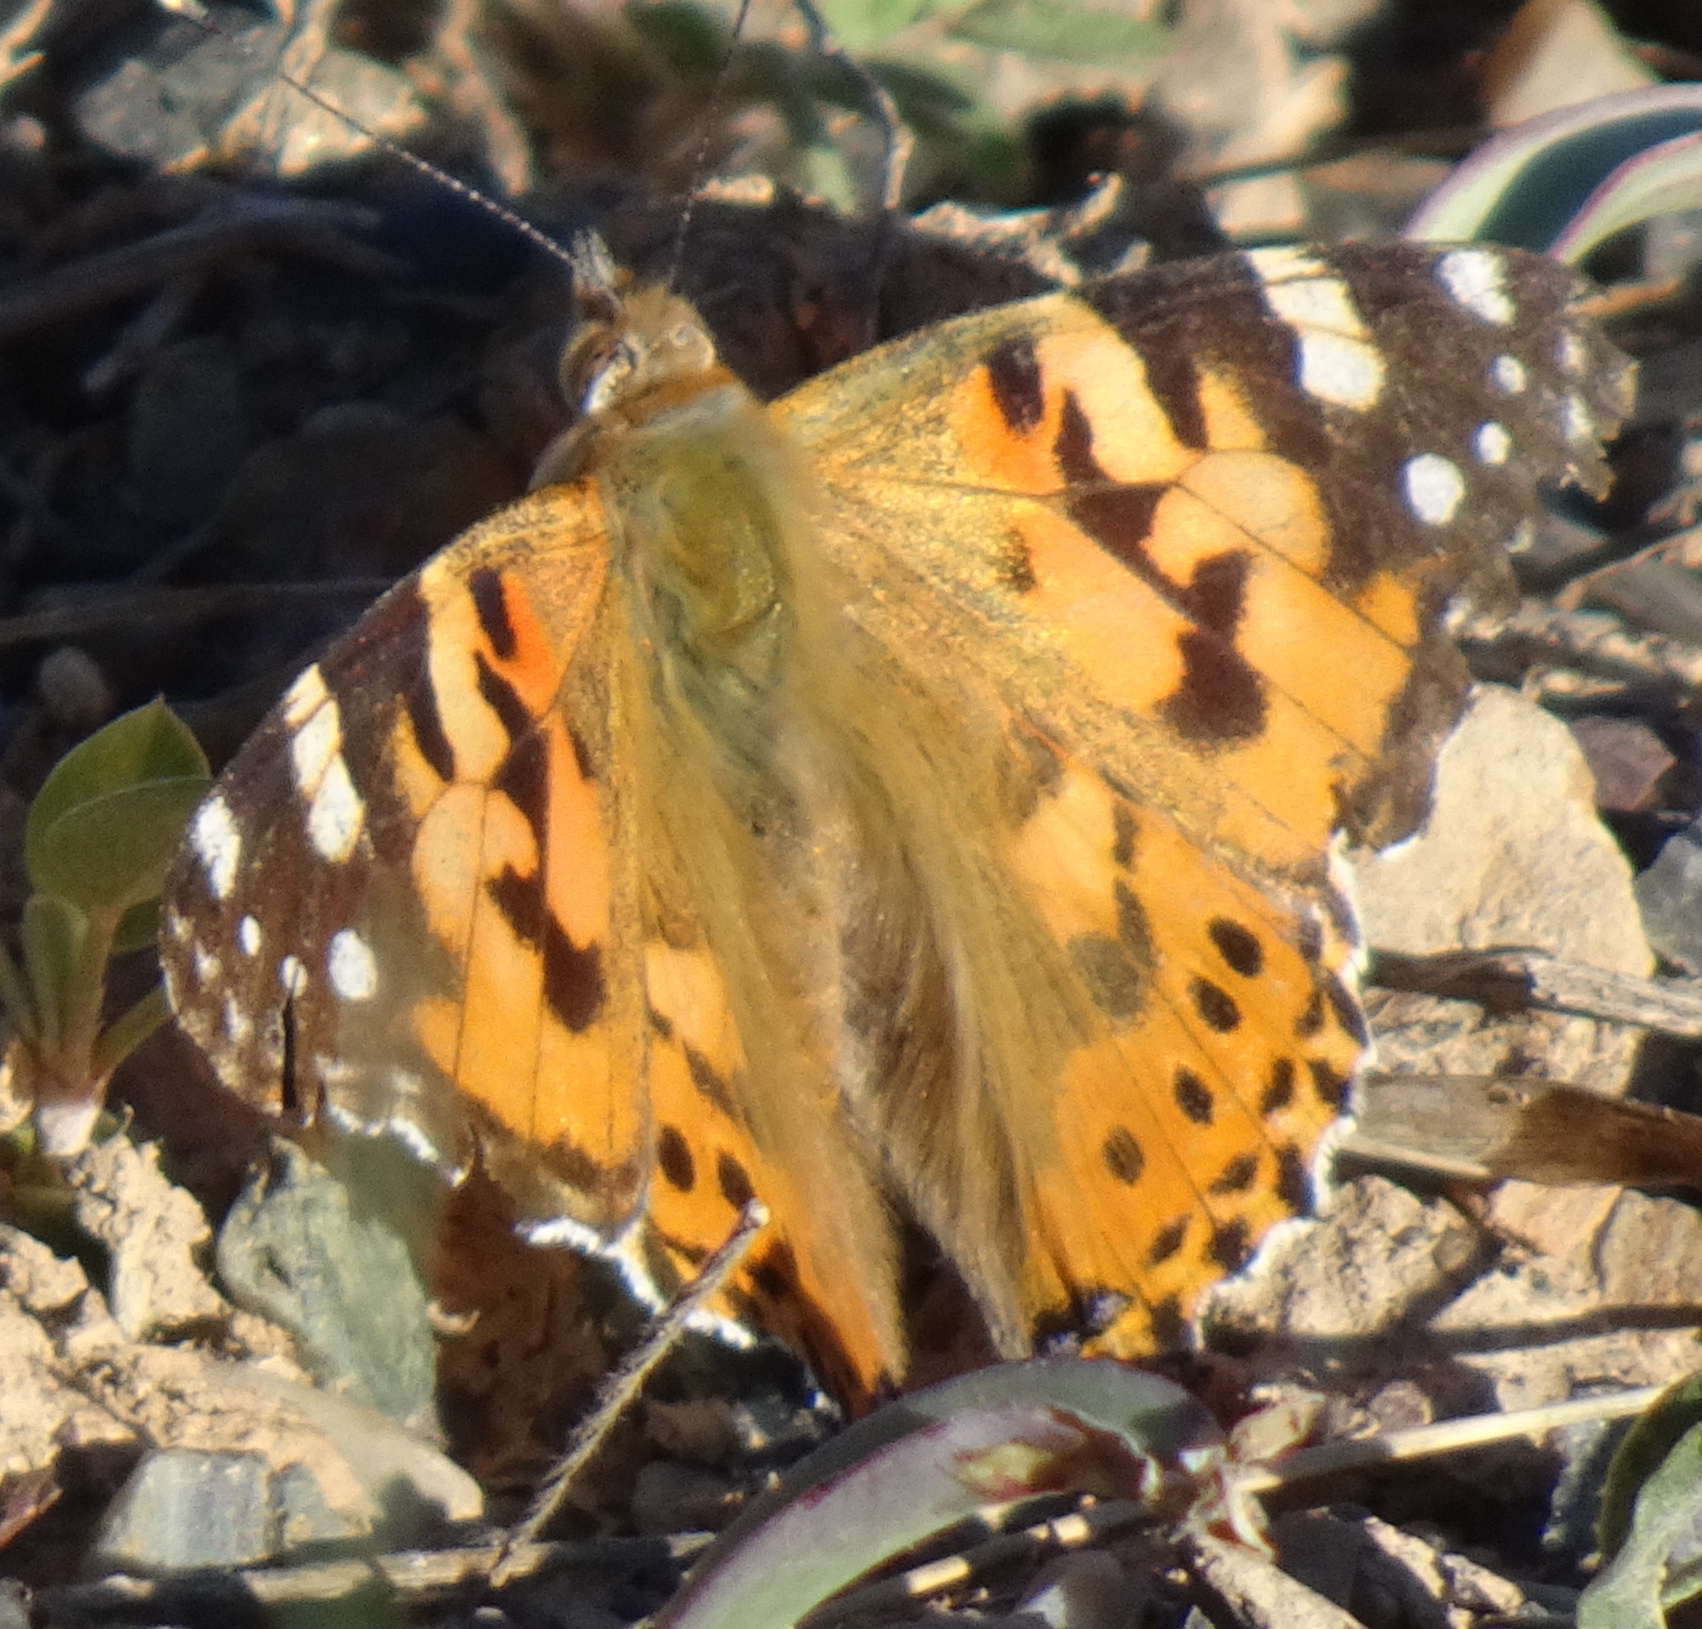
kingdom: Animalia
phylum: Arthropoda
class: Insecta
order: Lepidoptera
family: Nymphalidae
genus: Vanessa
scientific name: Vanessa cardui
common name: Painted lady
